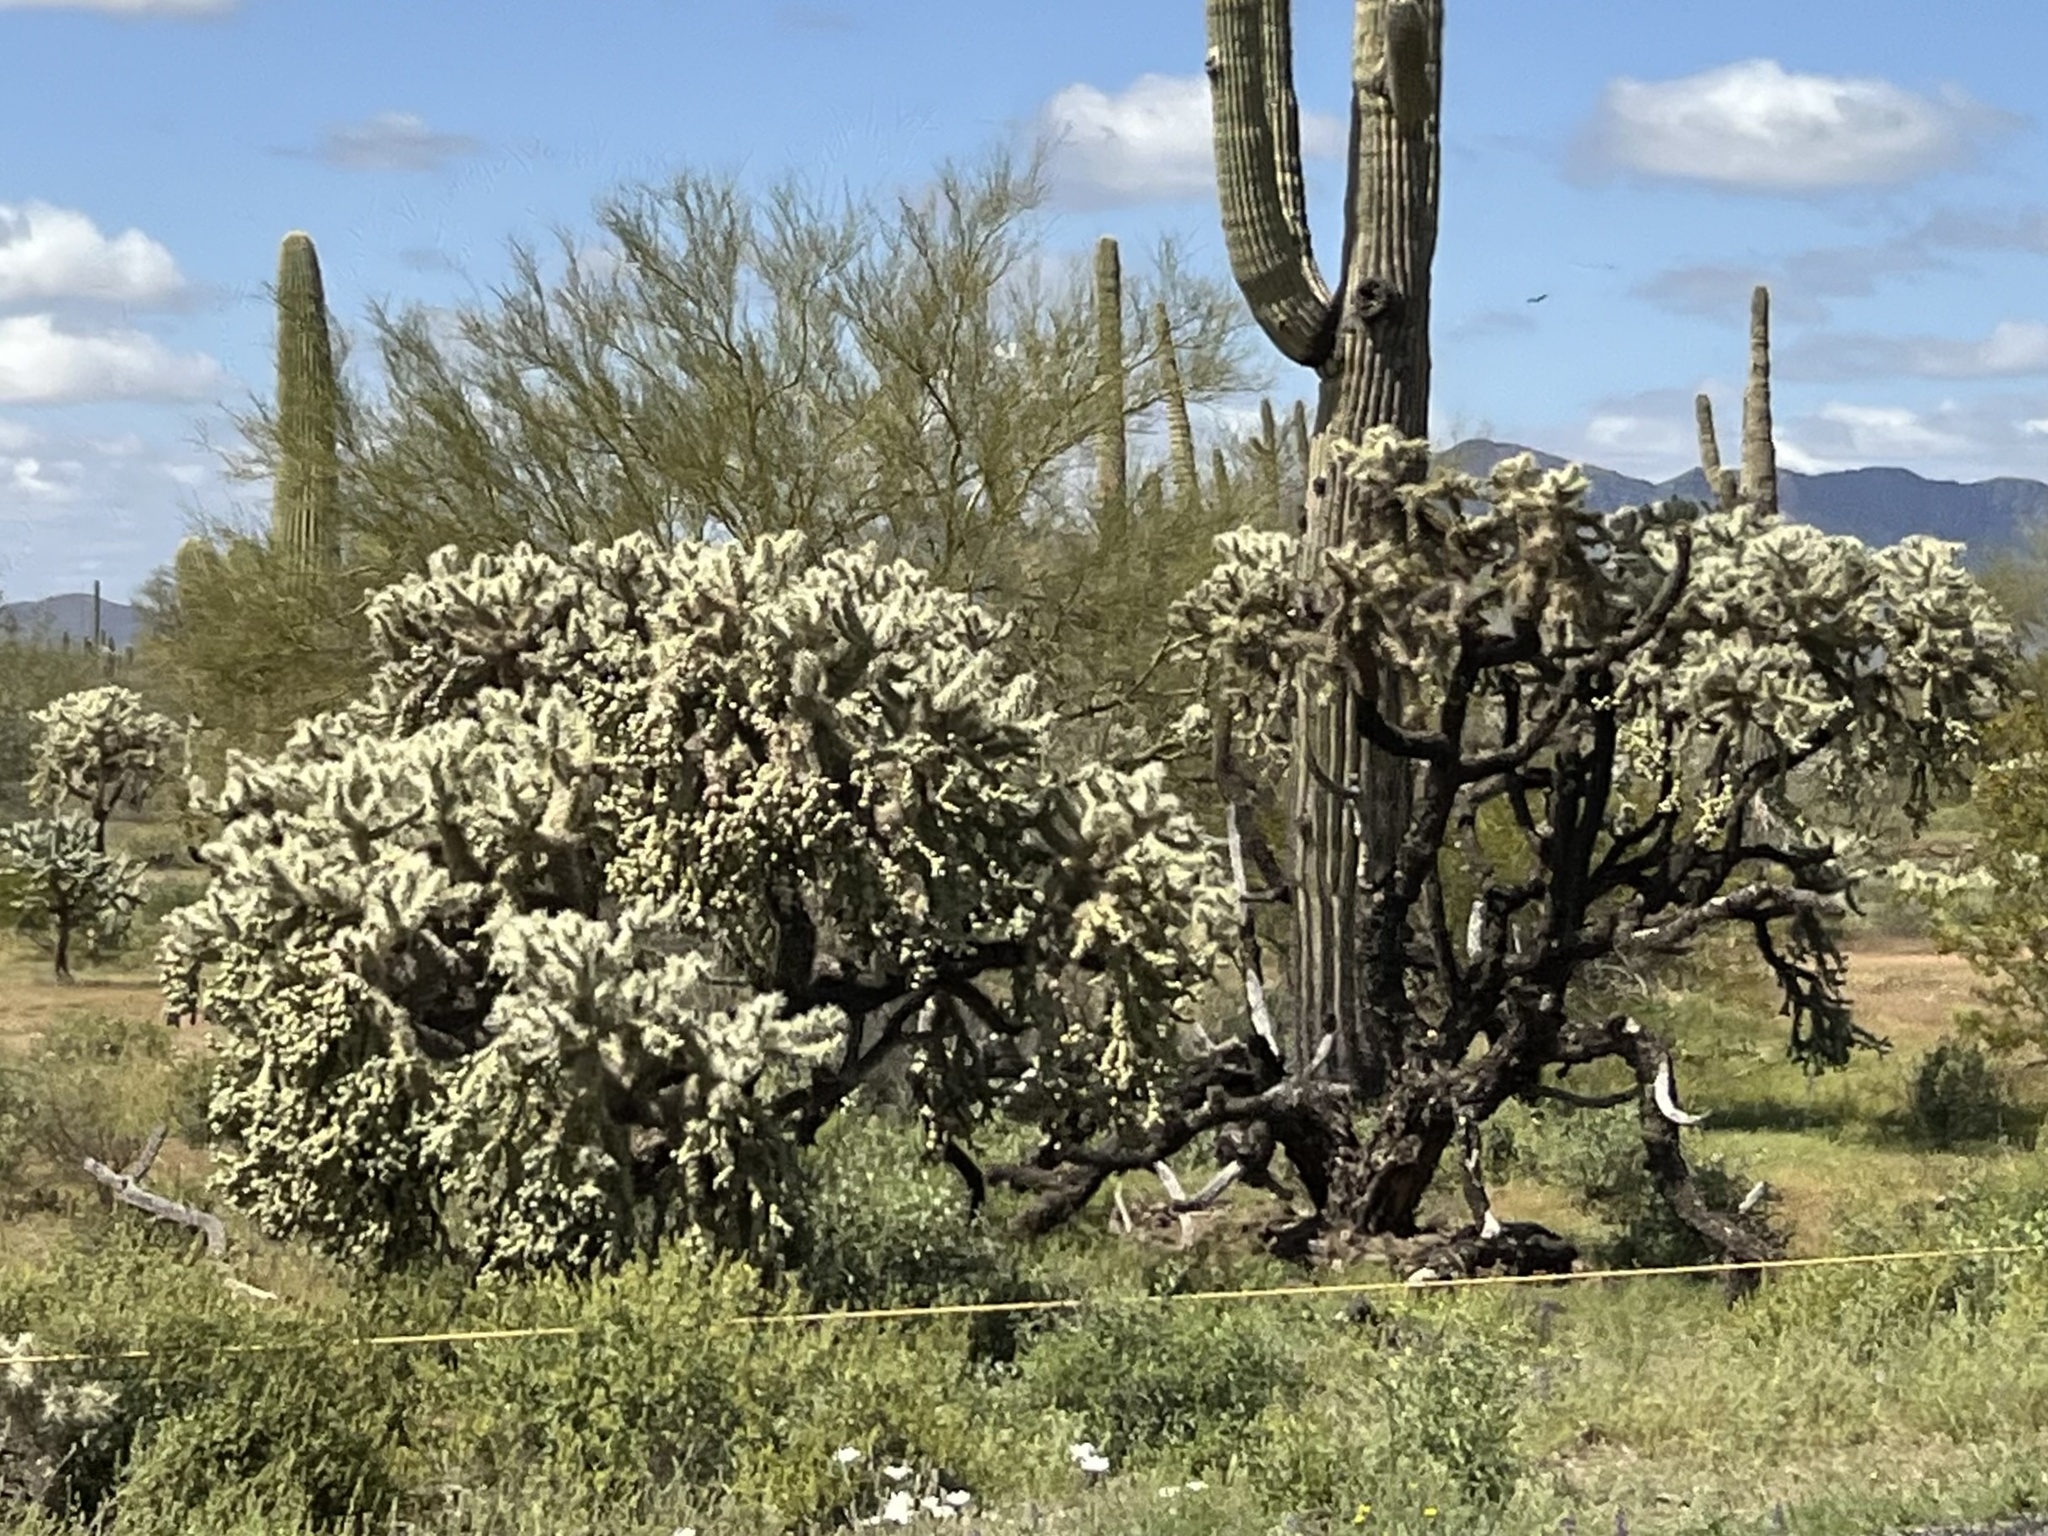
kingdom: Plantae
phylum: Tracheophyta
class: Magnoliopsida
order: Caryophyllales
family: Cactaceae
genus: Cylindropuntia
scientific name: Cylindropuntia fulgida
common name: Jumping cholla
